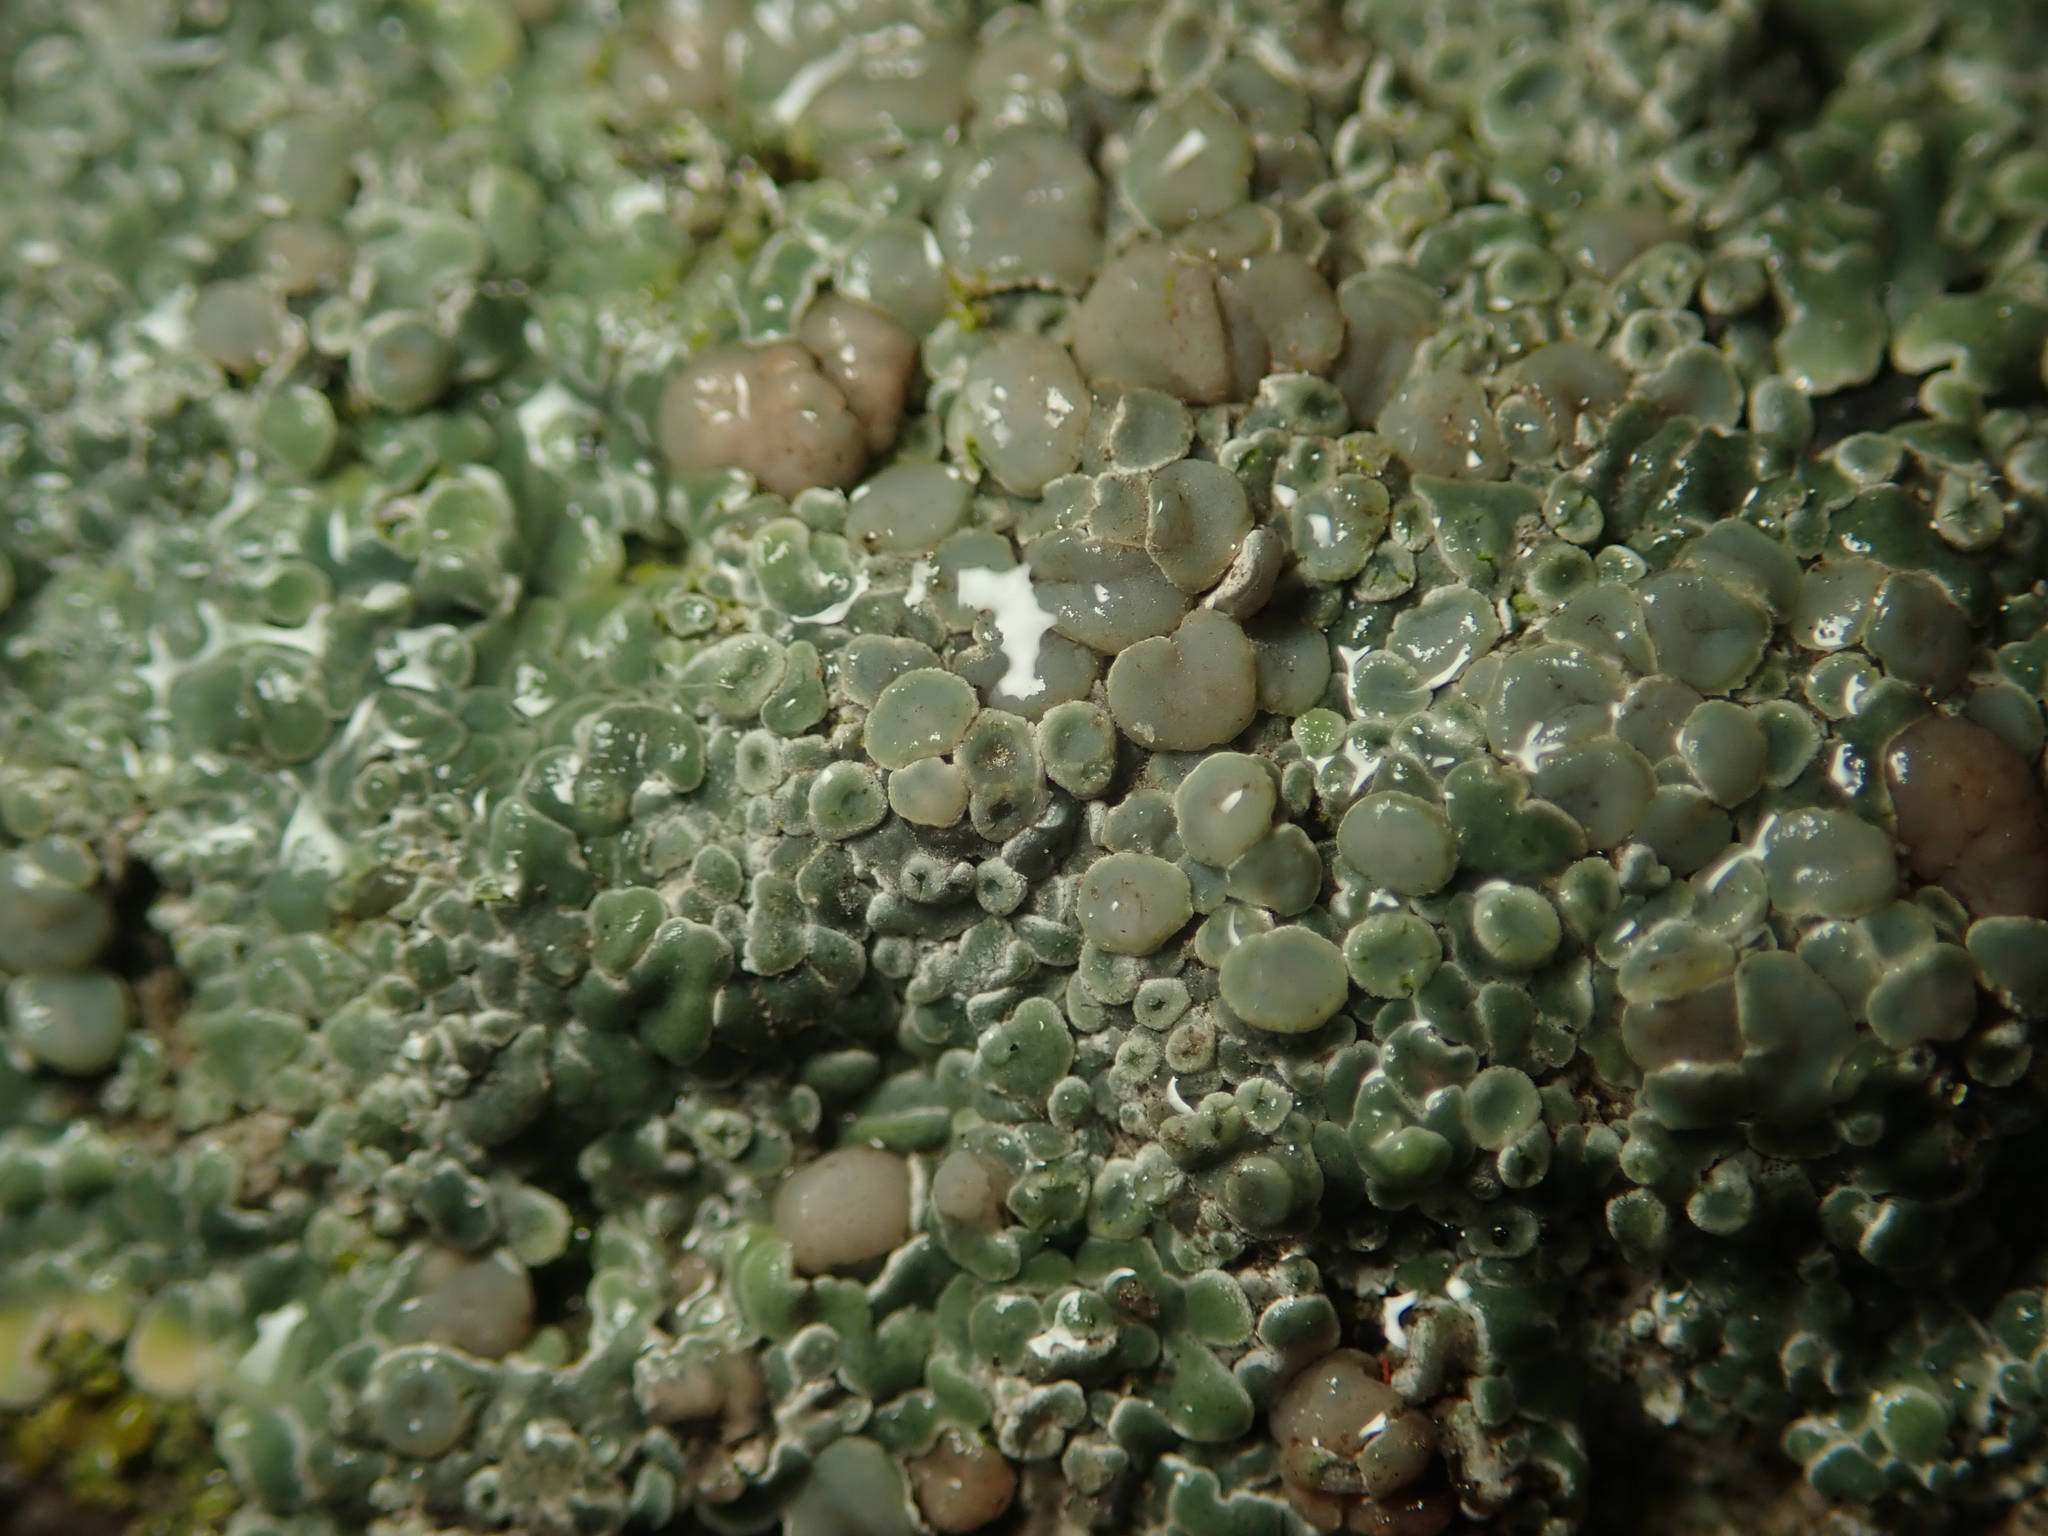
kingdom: Fungi
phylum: Ascomycota
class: Lecanoromycetes
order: Lecanorales
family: Lecanoraceae
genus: Protoparmeliopsis
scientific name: Protoparmeliopsis muralis
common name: Stonewall rim lichen
